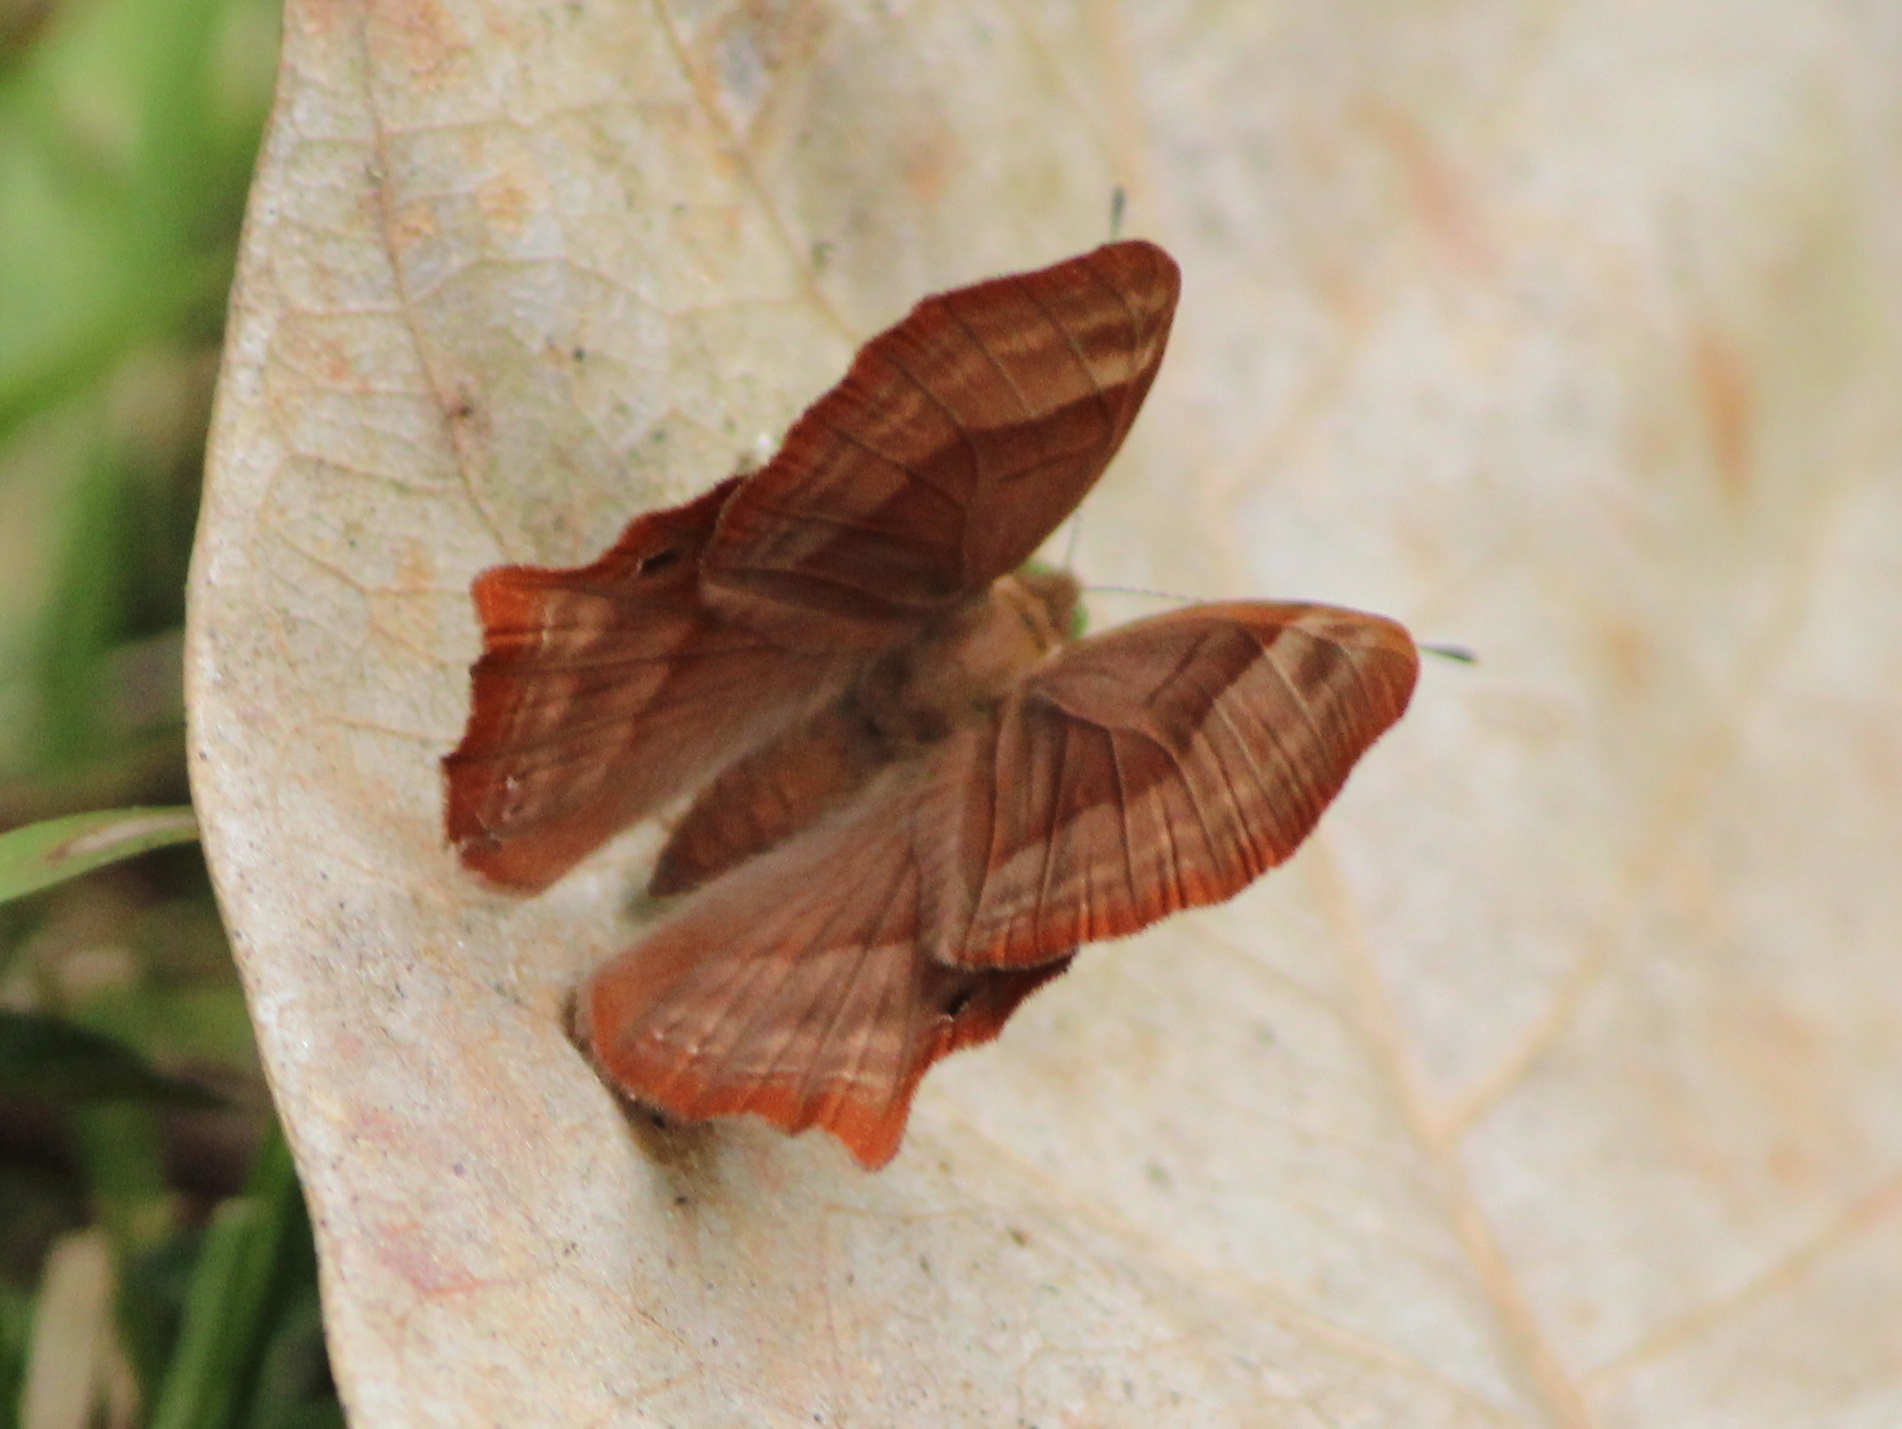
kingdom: Animalia
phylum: Arthropoda
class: Insecta
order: Lepidoptera
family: Lycaenidae
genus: Abisara
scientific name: Abisara bifasciata
